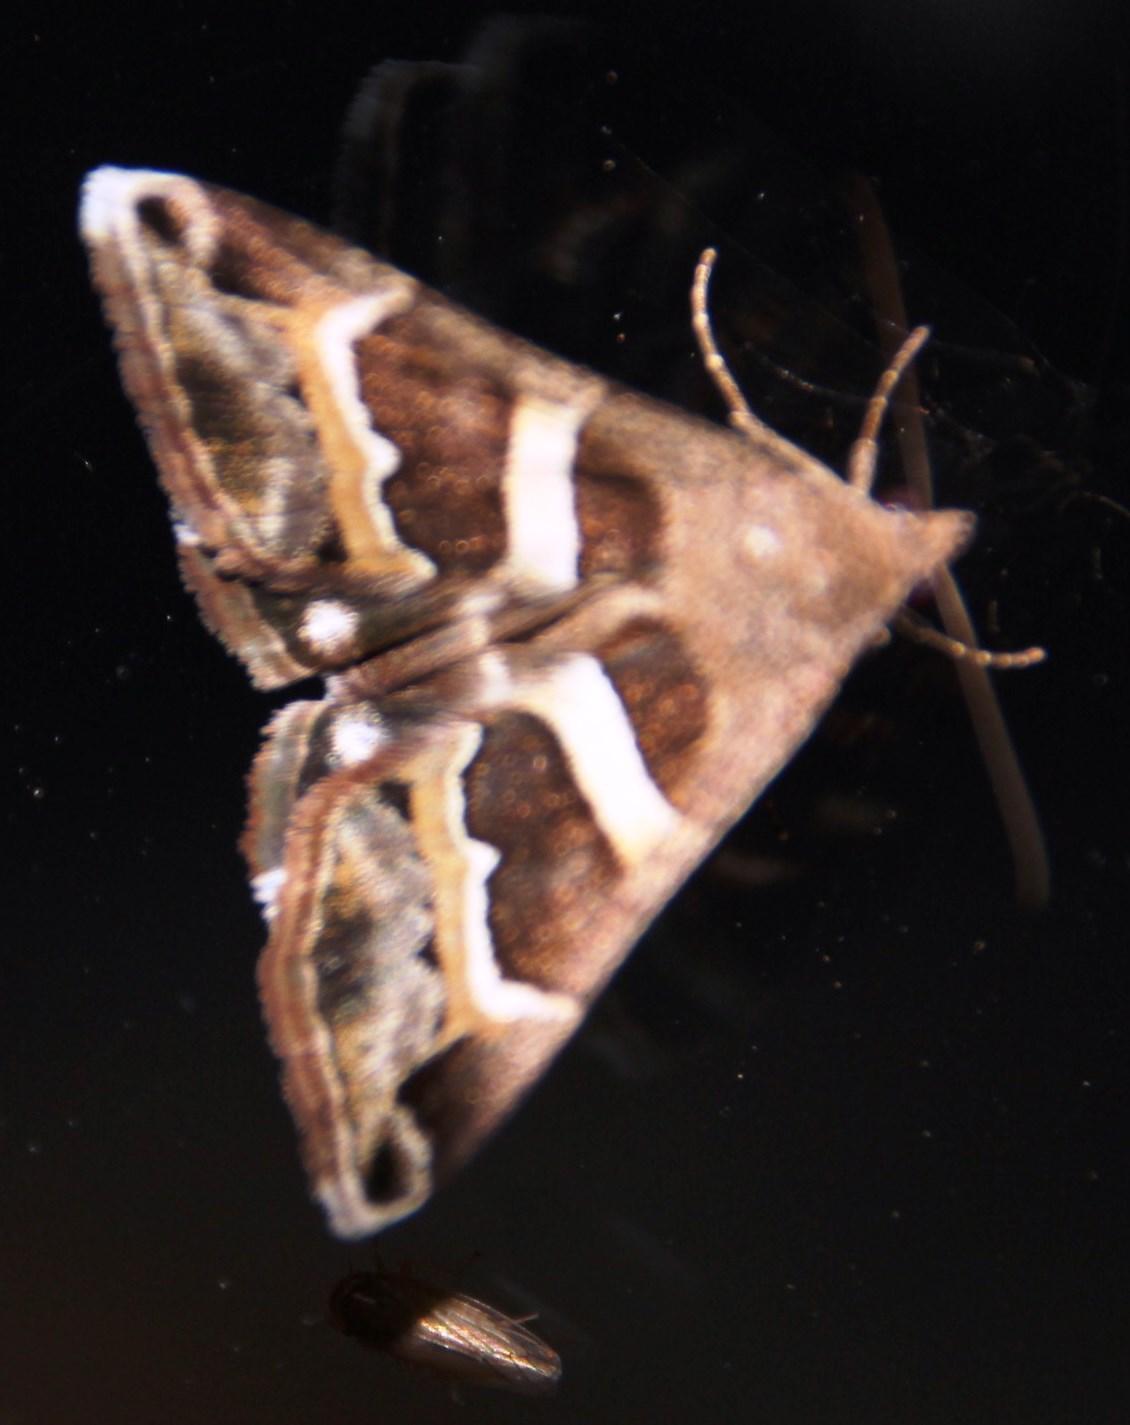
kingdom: Animalia
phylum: Arthropoda
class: Insecta
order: Lepidoptera
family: Erebidae
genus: Grammodes
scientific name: Grammodes stolida
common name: Geometrician
